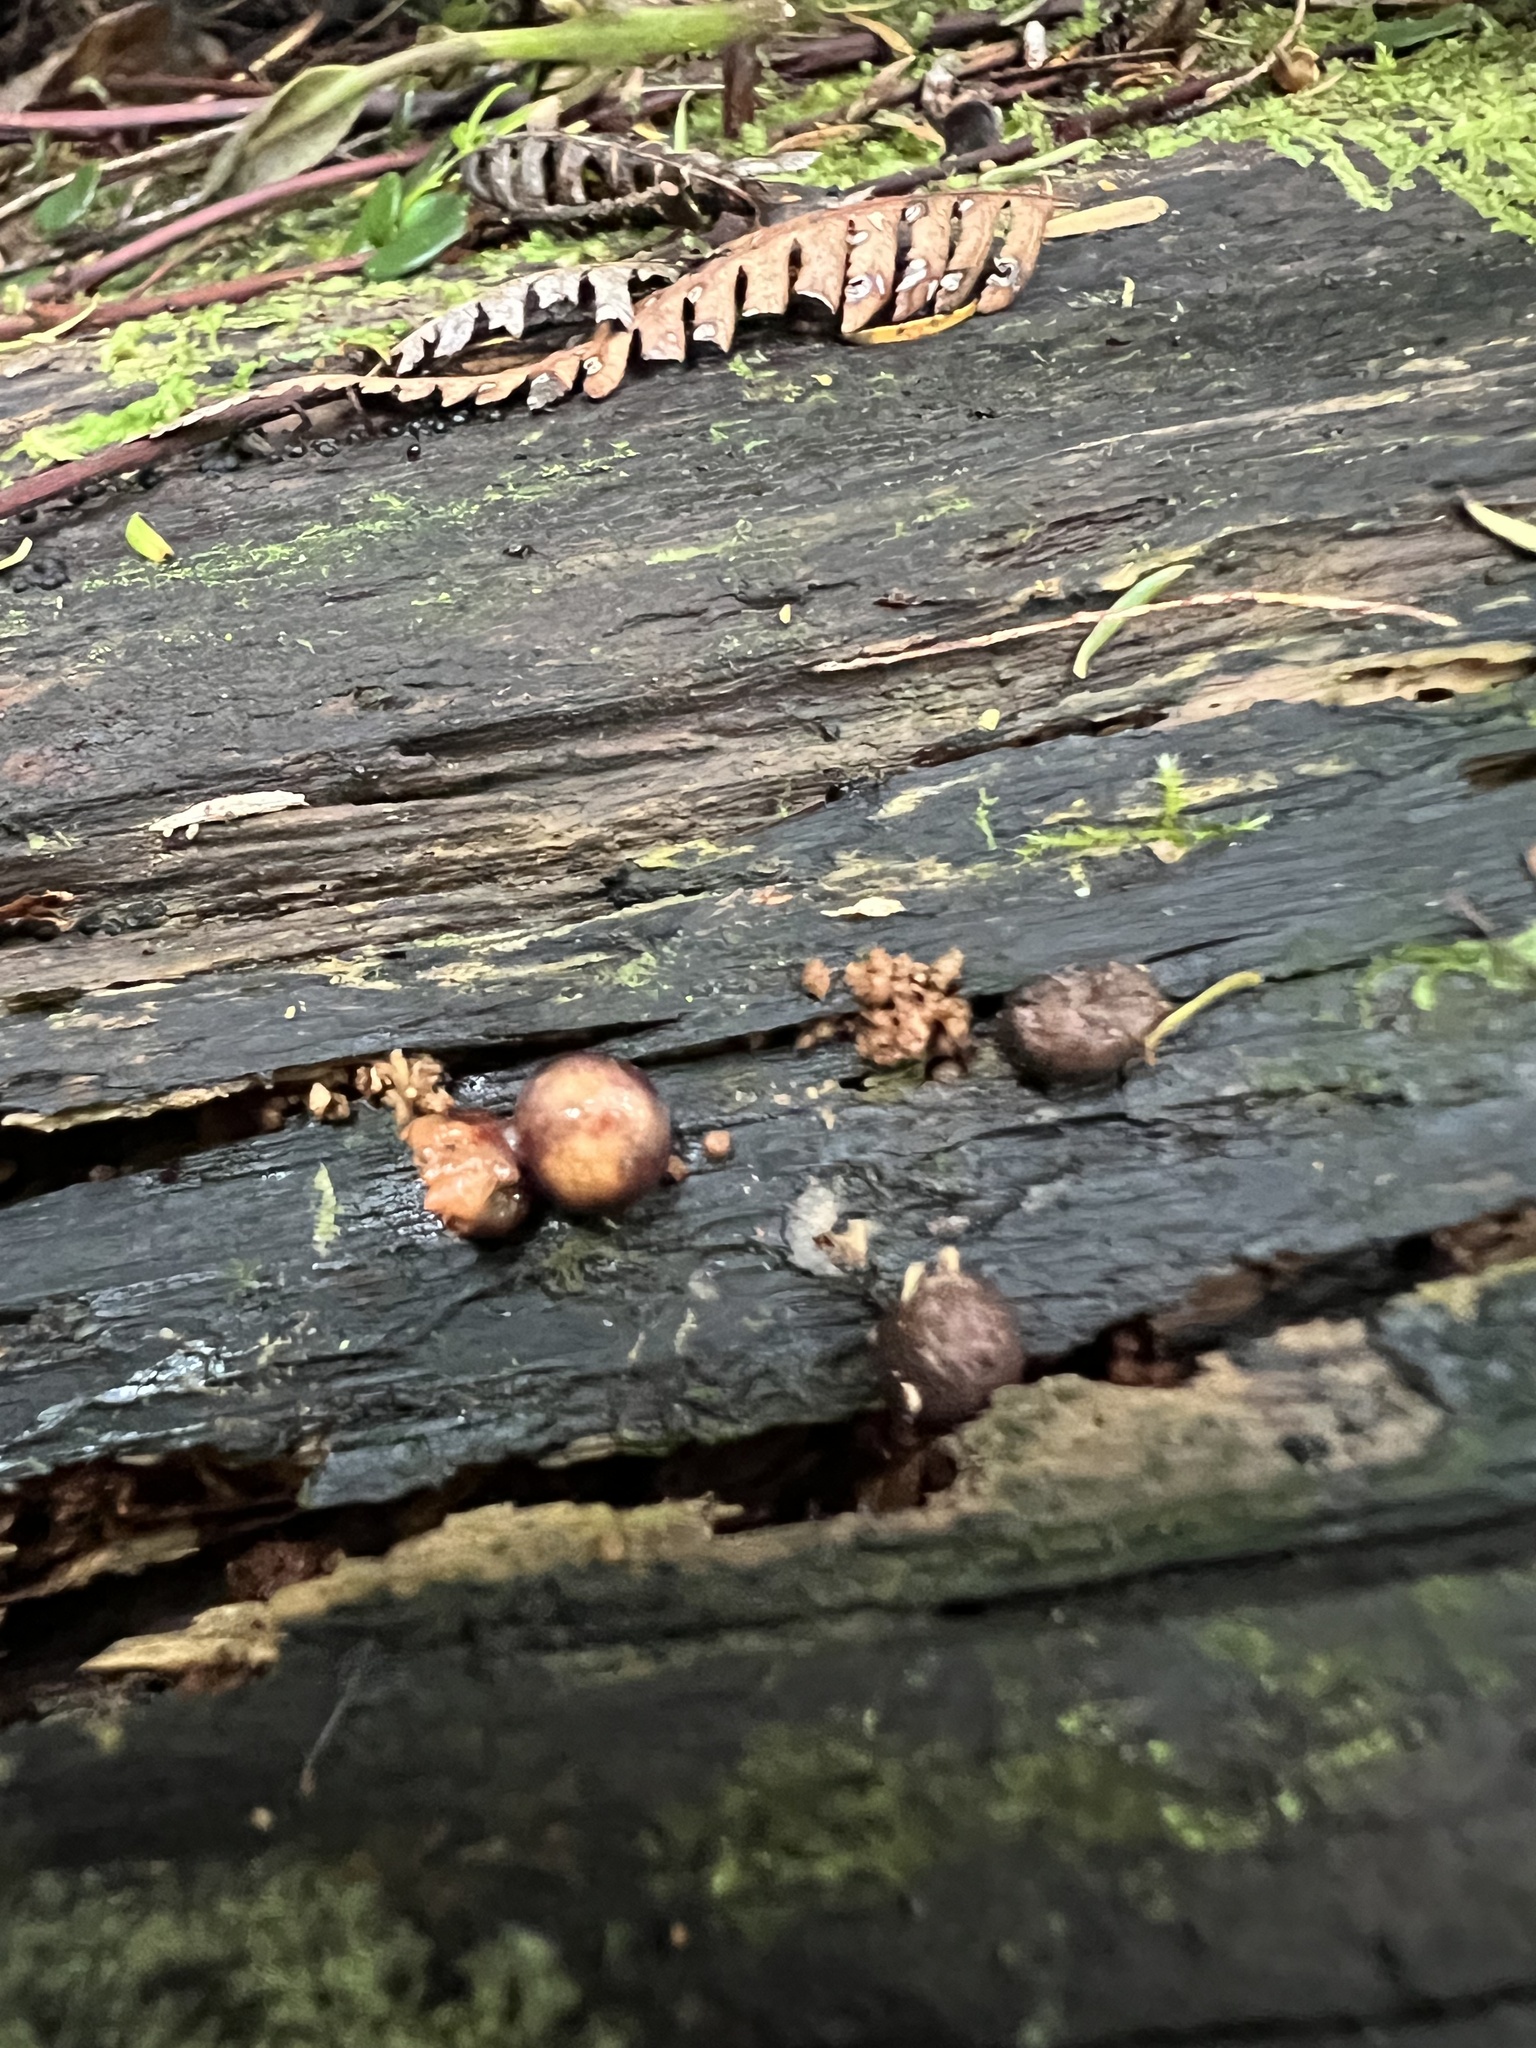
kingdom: Protozoa
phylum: Mycetozoa
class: Myxomycetes
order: Cribrariales
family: Tubiferaceae
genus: Lycogala
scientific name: Lycogala epidendrum
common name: Wolf's milk
